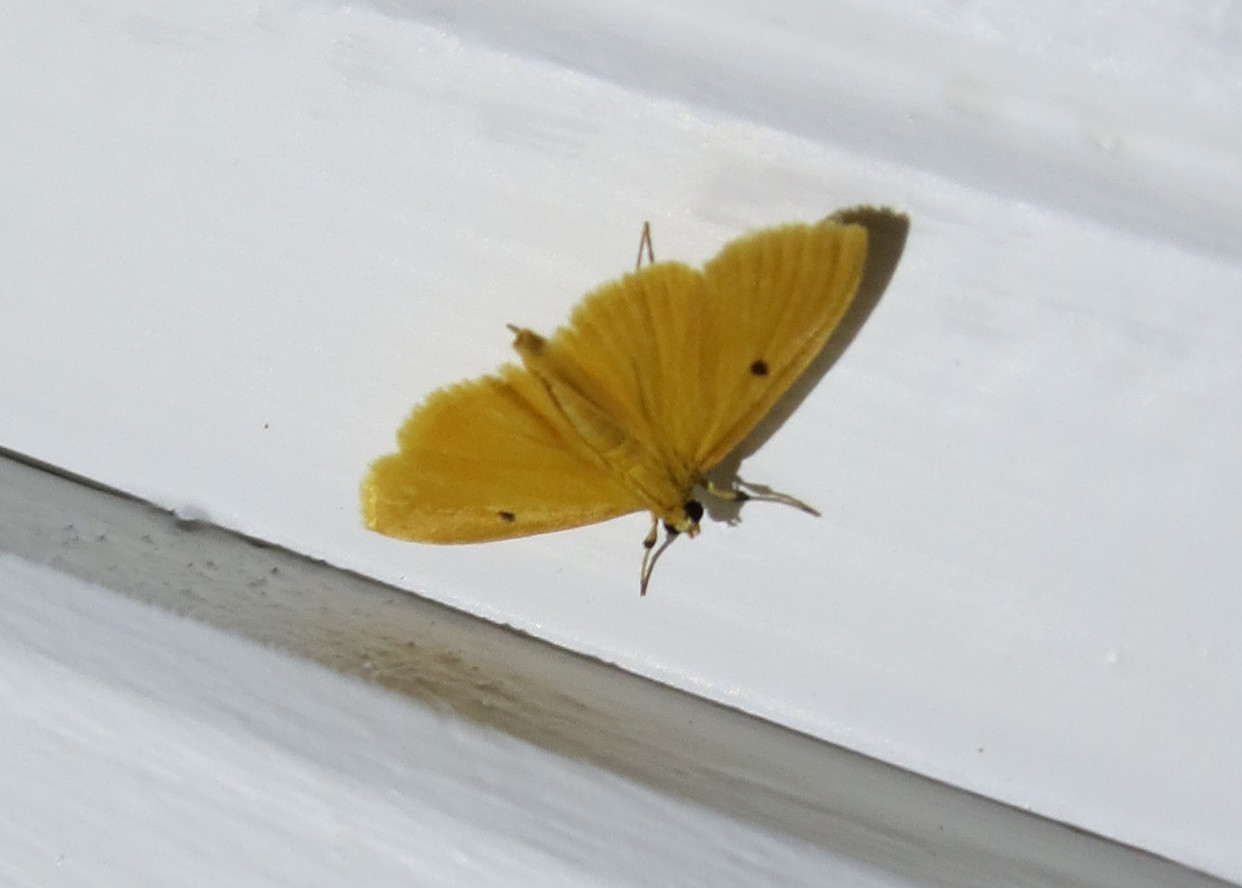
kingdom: Animalia
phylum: Arthropoda
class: Insecta
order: Lepidoptera
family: Crambidae
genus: Notarcha
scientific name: Notarcha muscerdalis
